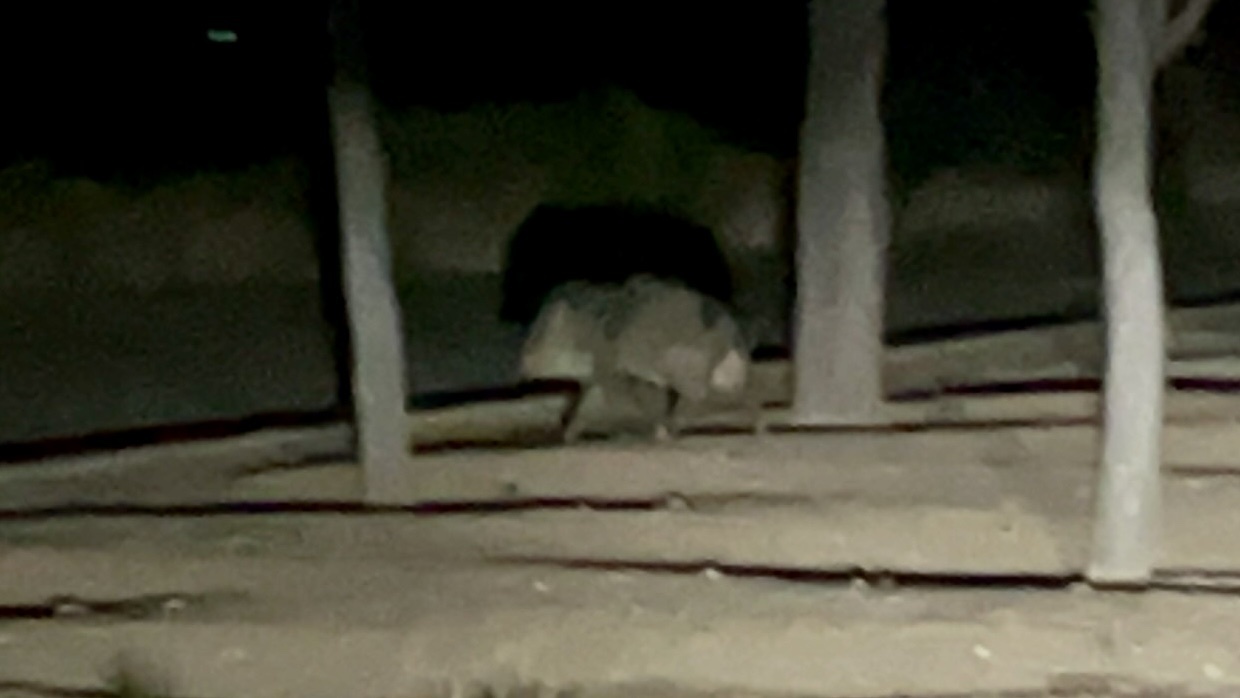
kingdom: Animalia
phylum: Chordata
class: Mammalia
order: Artiodactyla
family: Tayassuidae
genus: Pecari
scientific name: Pecari tajacu
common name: Collared peccary
